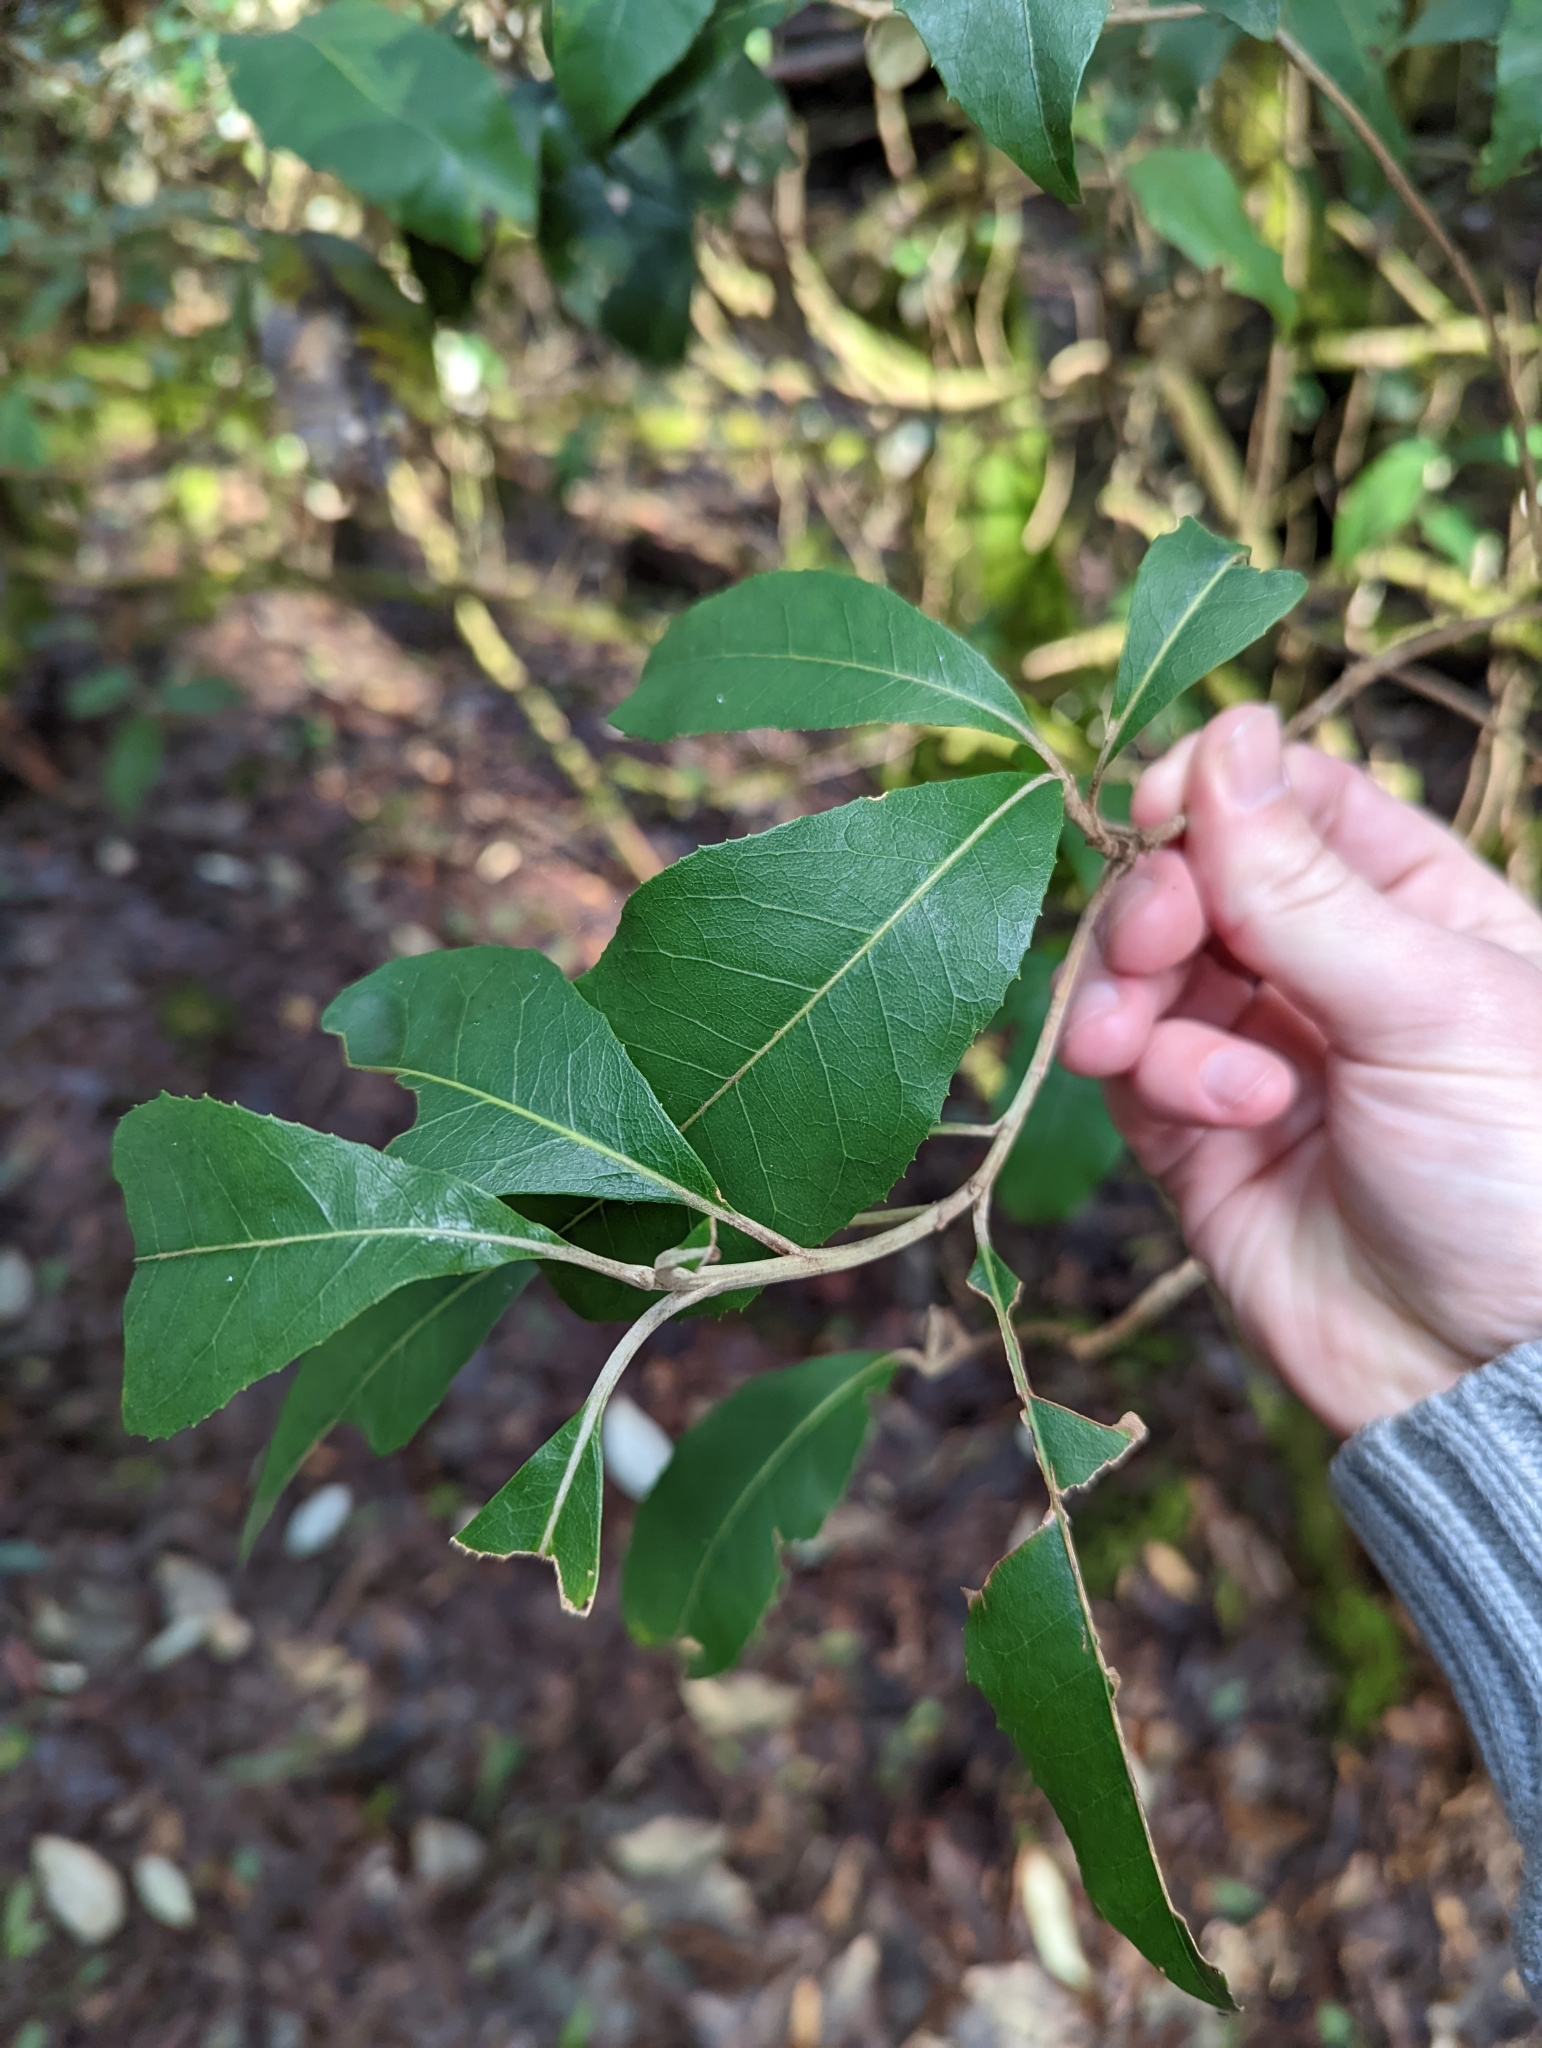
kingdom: Plantae
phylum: Tracheophyta
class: Magnoliopsida
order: Asterales
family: Asteraceae
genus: Olearia
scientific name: Olearia argophylla
